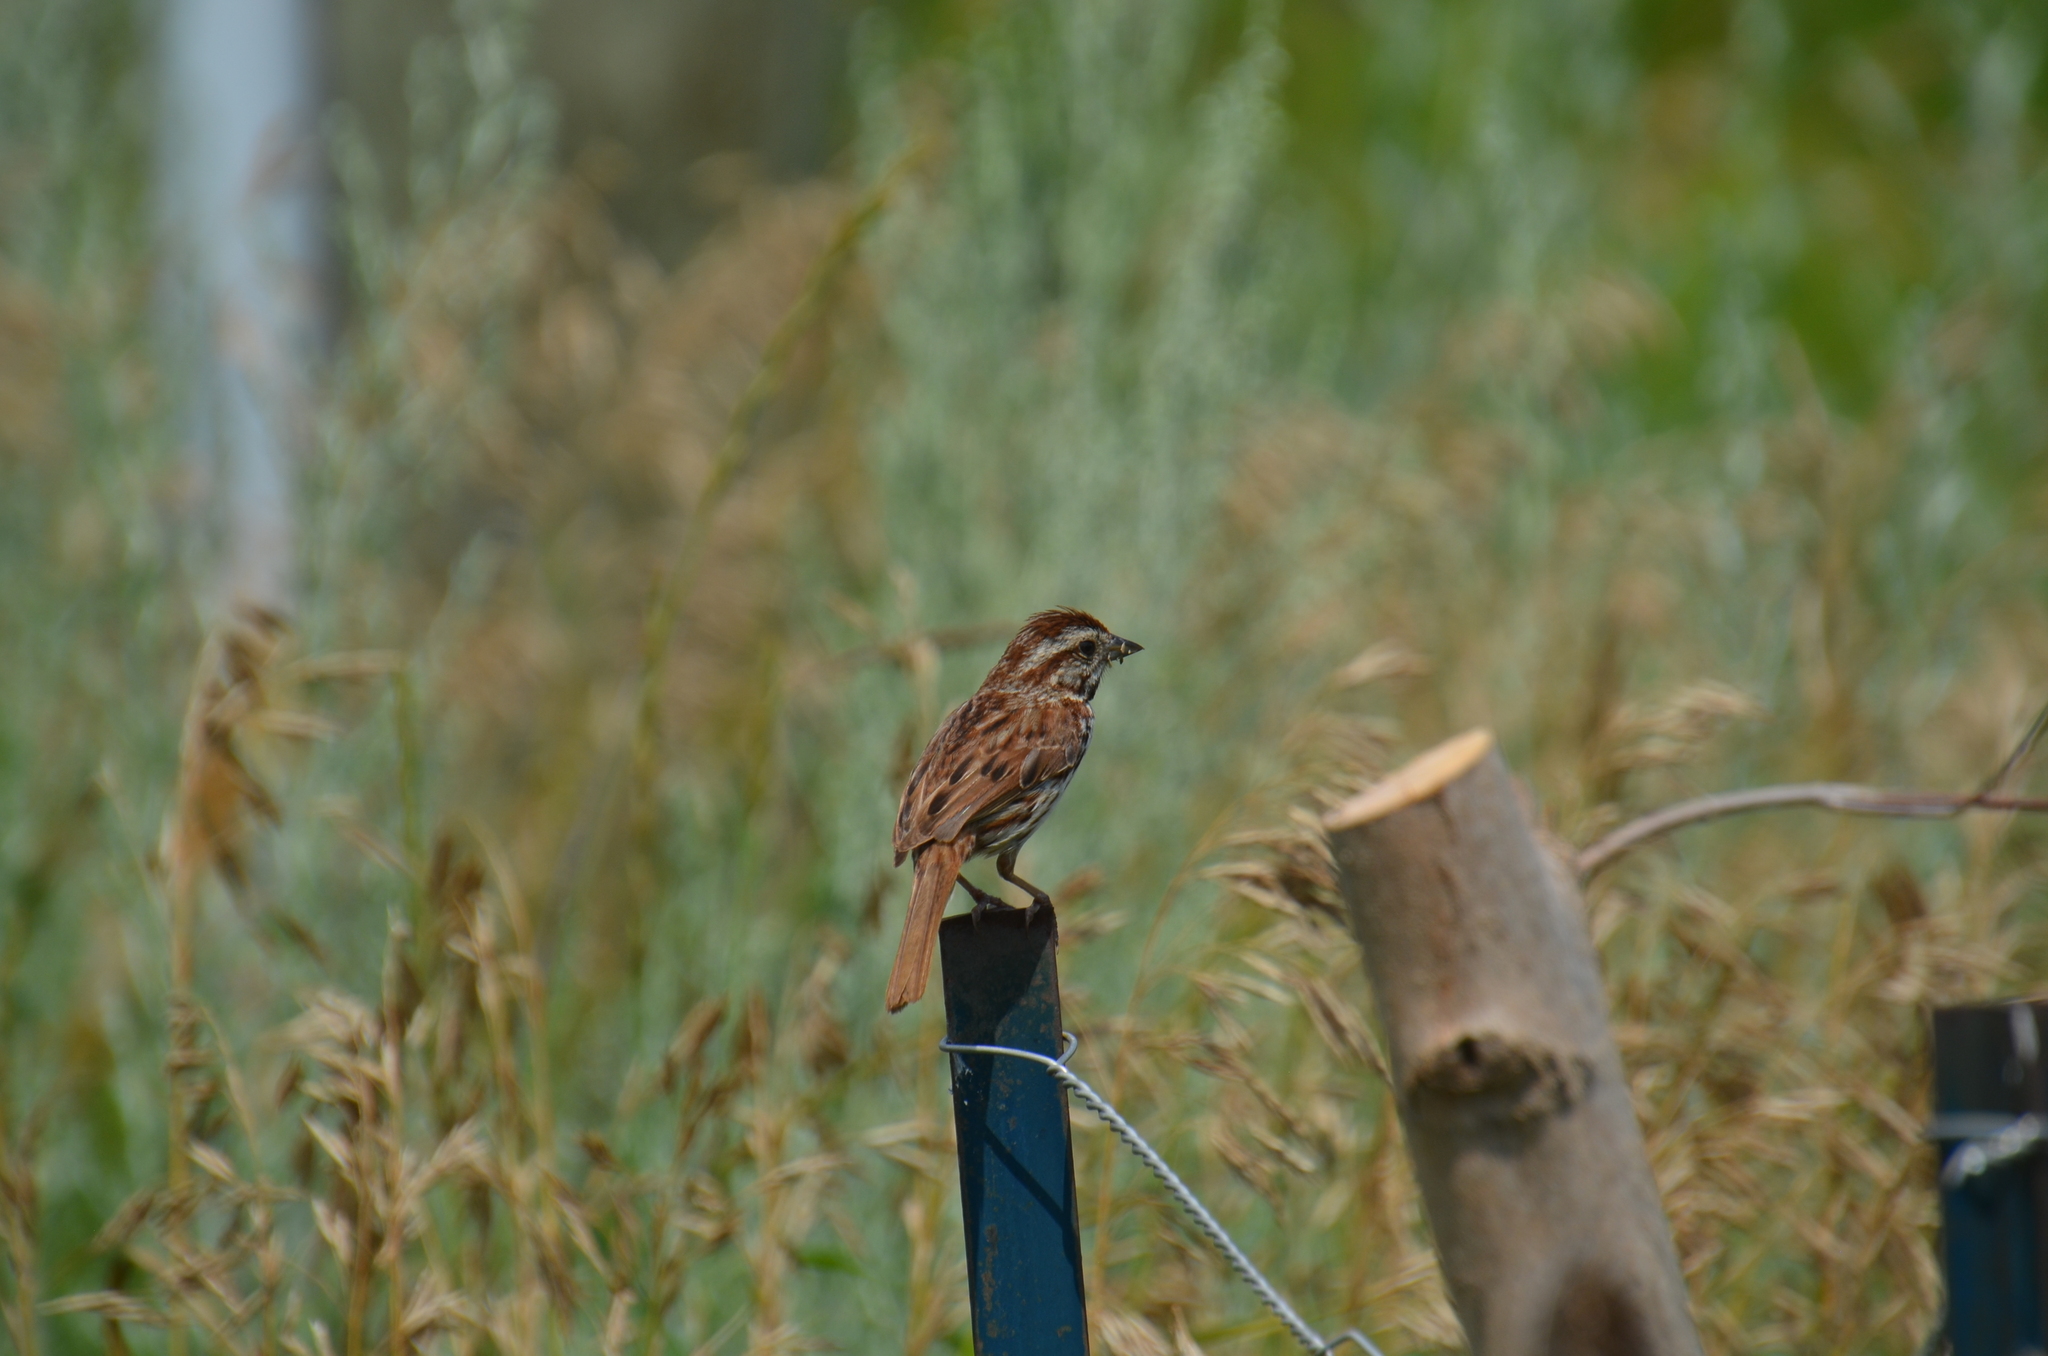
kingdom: Animalia
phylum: Chordata
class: Aves
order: Passeriformes
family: Passerellidae
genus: Melospiza
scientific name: Melospiza melodia
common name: Song sparrow
